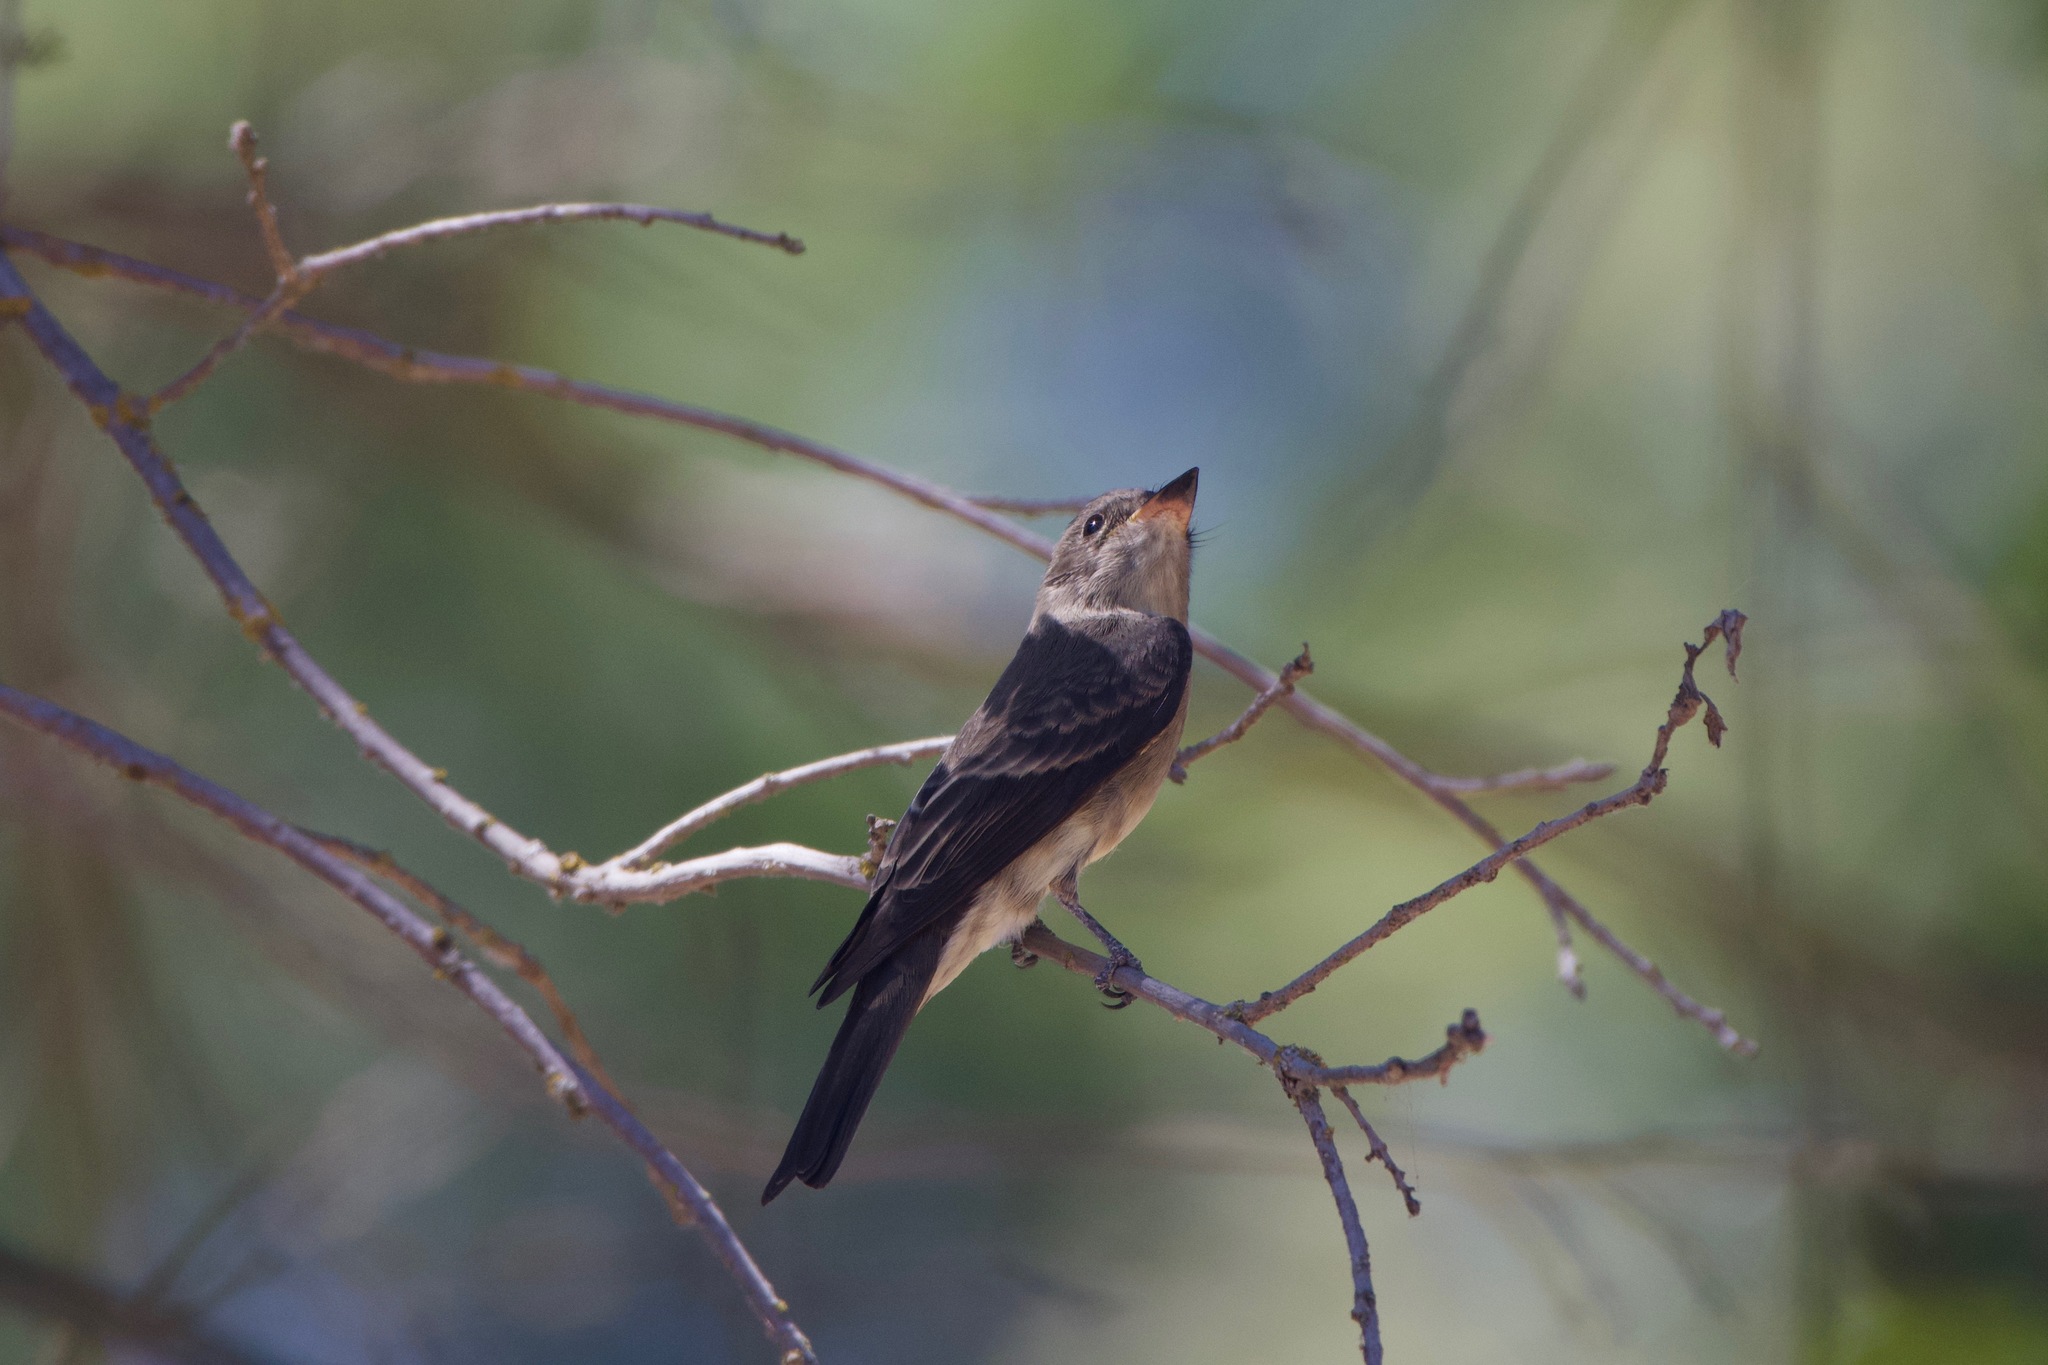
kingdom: Animalia
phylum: Chordata
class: Aves
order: Passeriformes
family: Tyrannidae
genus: Contopus
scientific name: Contopus sordidulus
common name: Western wood-pewee
